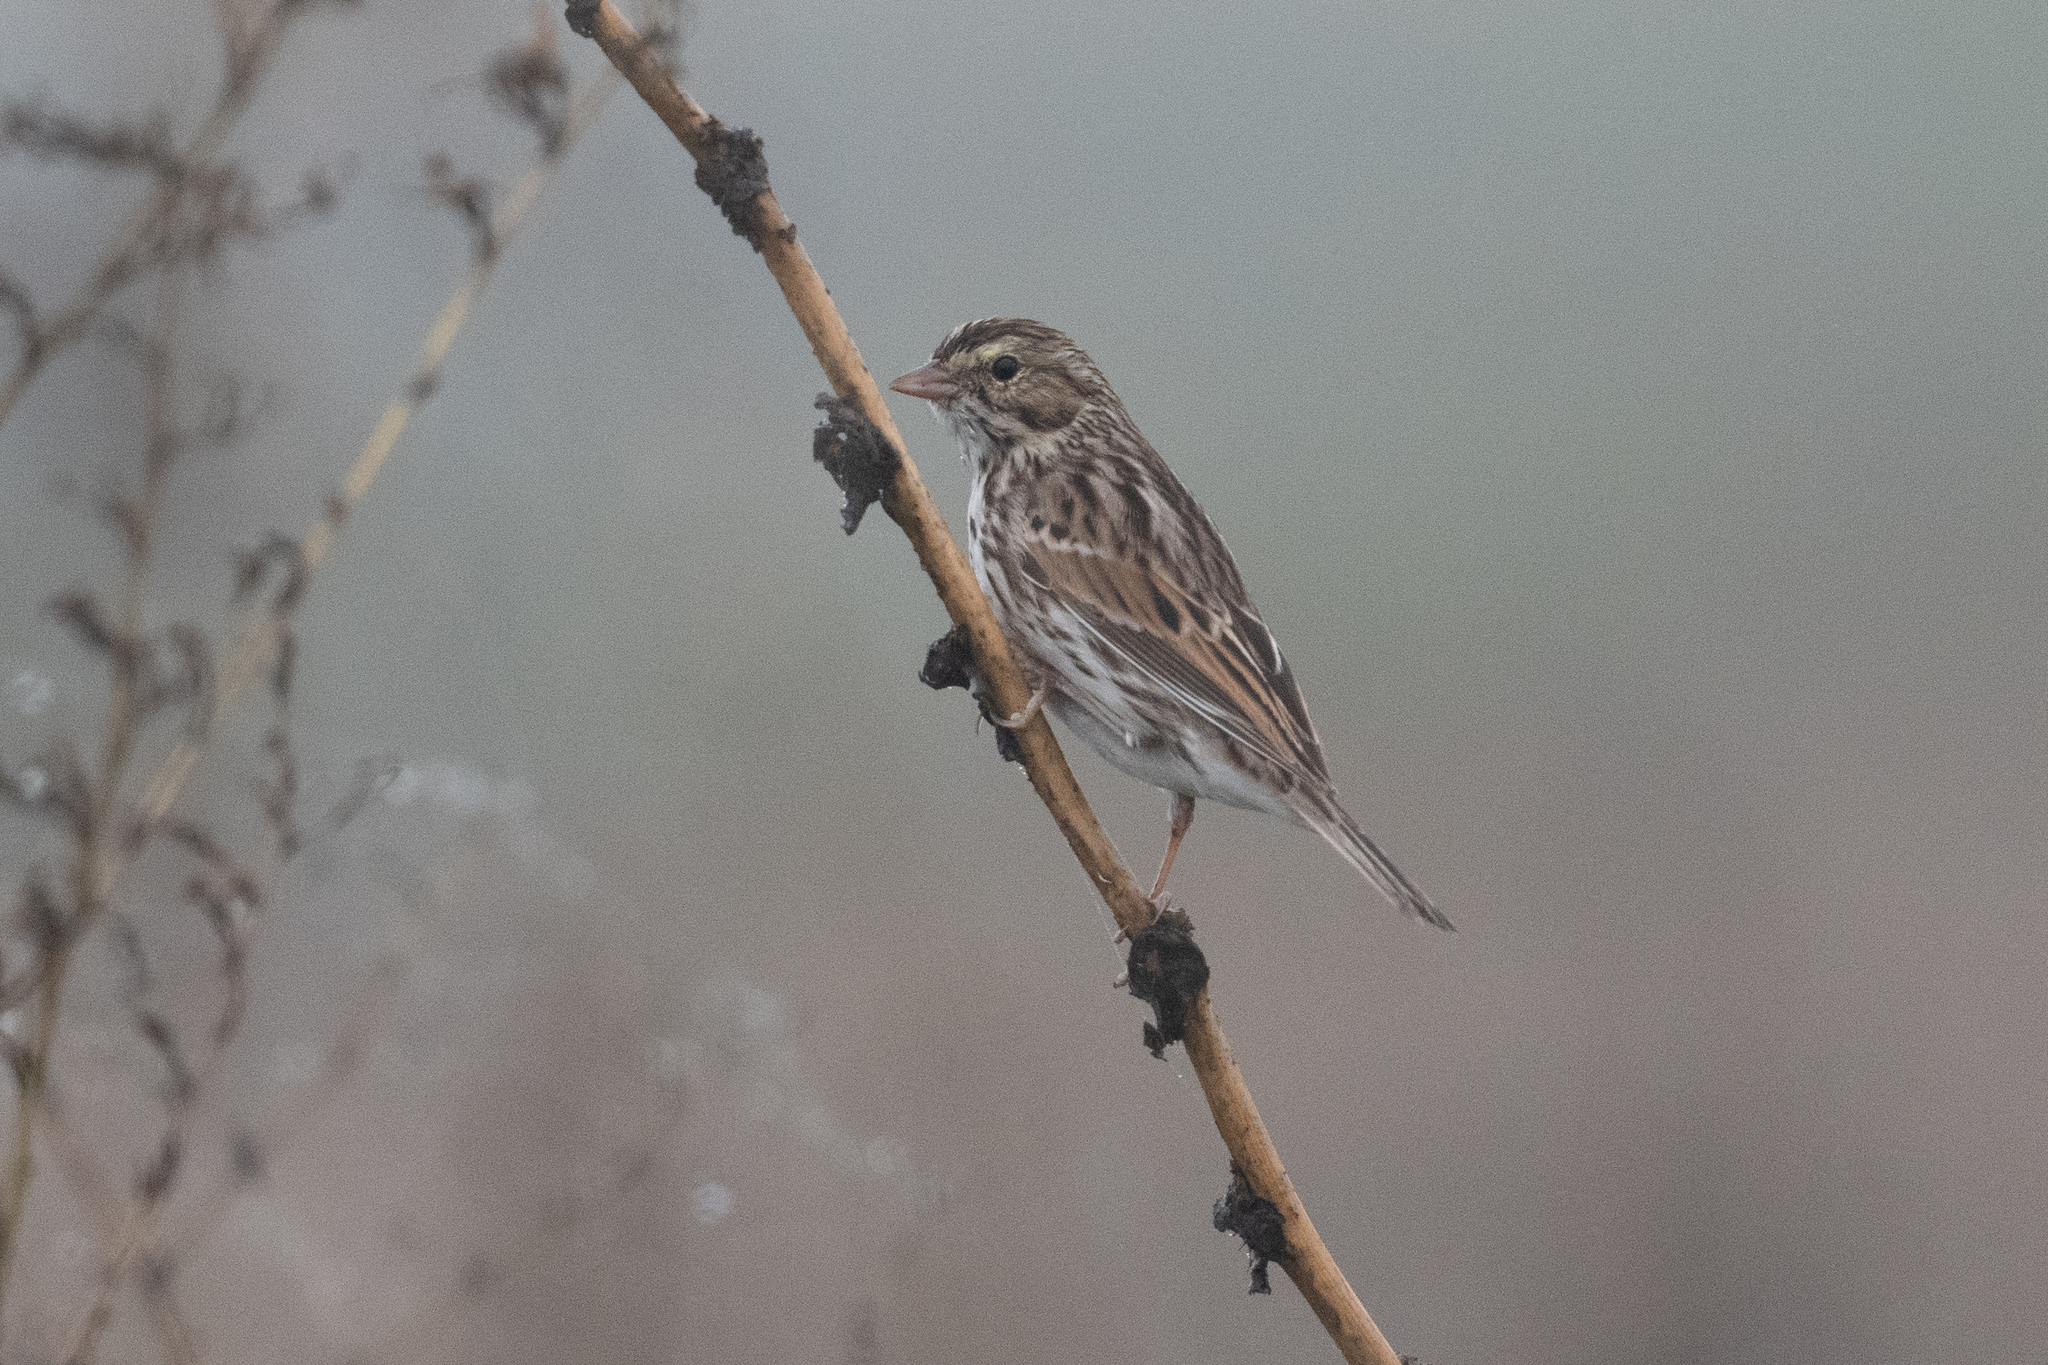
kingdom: Animalia
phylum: Chordata
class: Aves
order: Passeriformes
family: Passerellidae
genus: Passerculus
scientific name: Passerculus sandwichensis
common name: Savannah sparrow
